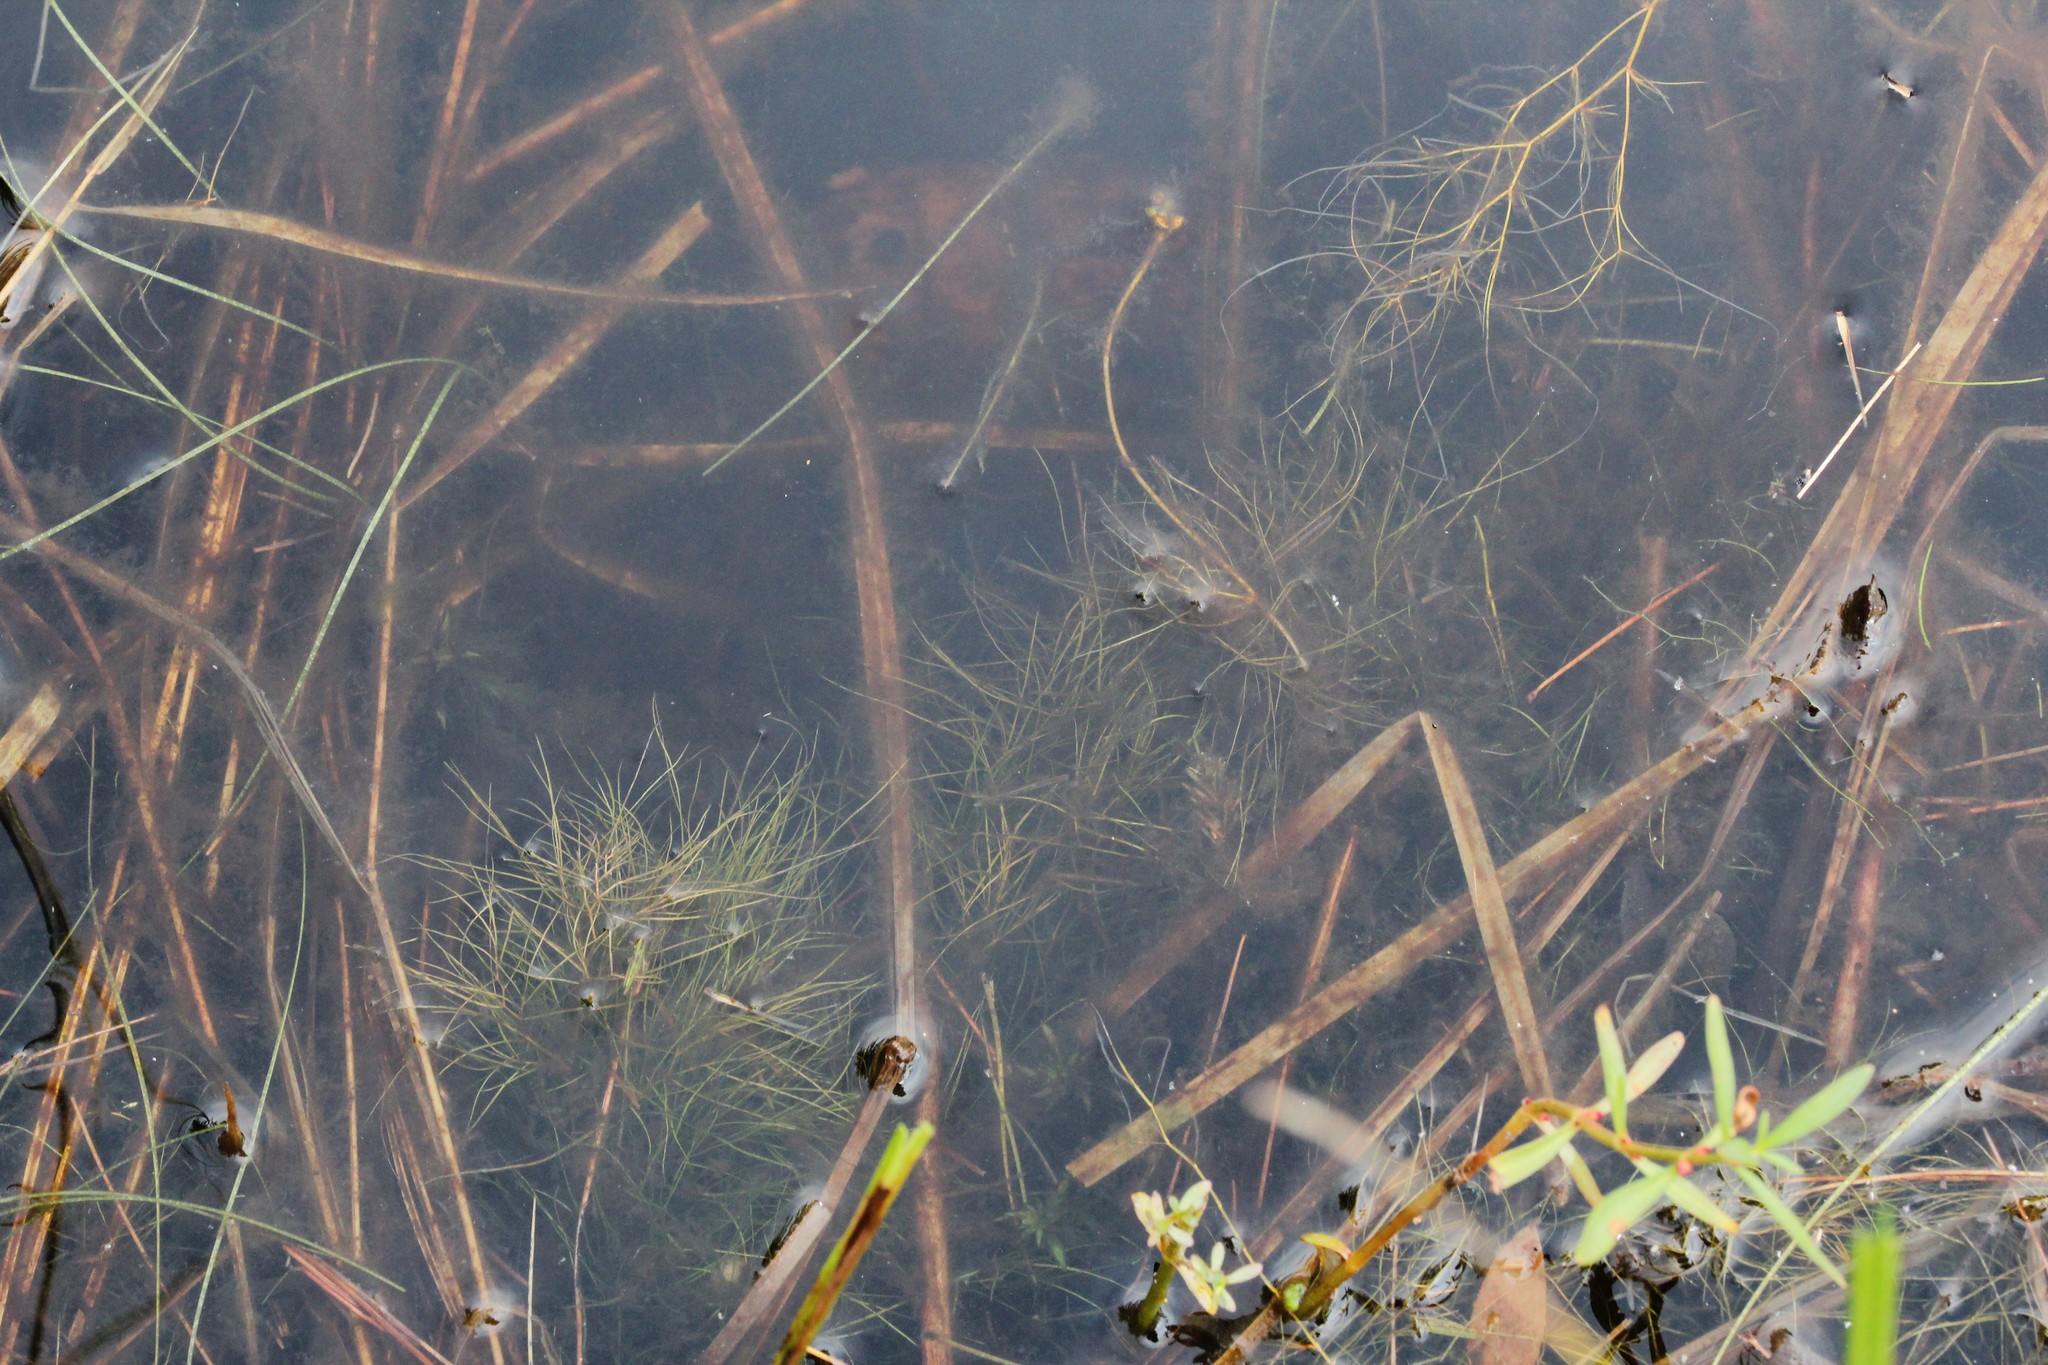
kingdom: Plantae
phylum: Tracheophyta
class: Liliopsida
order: Alismatales
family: Potamogetonaceae
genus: Potamogeton
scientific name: Potamogeton confervoides
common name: Alga pondweed
